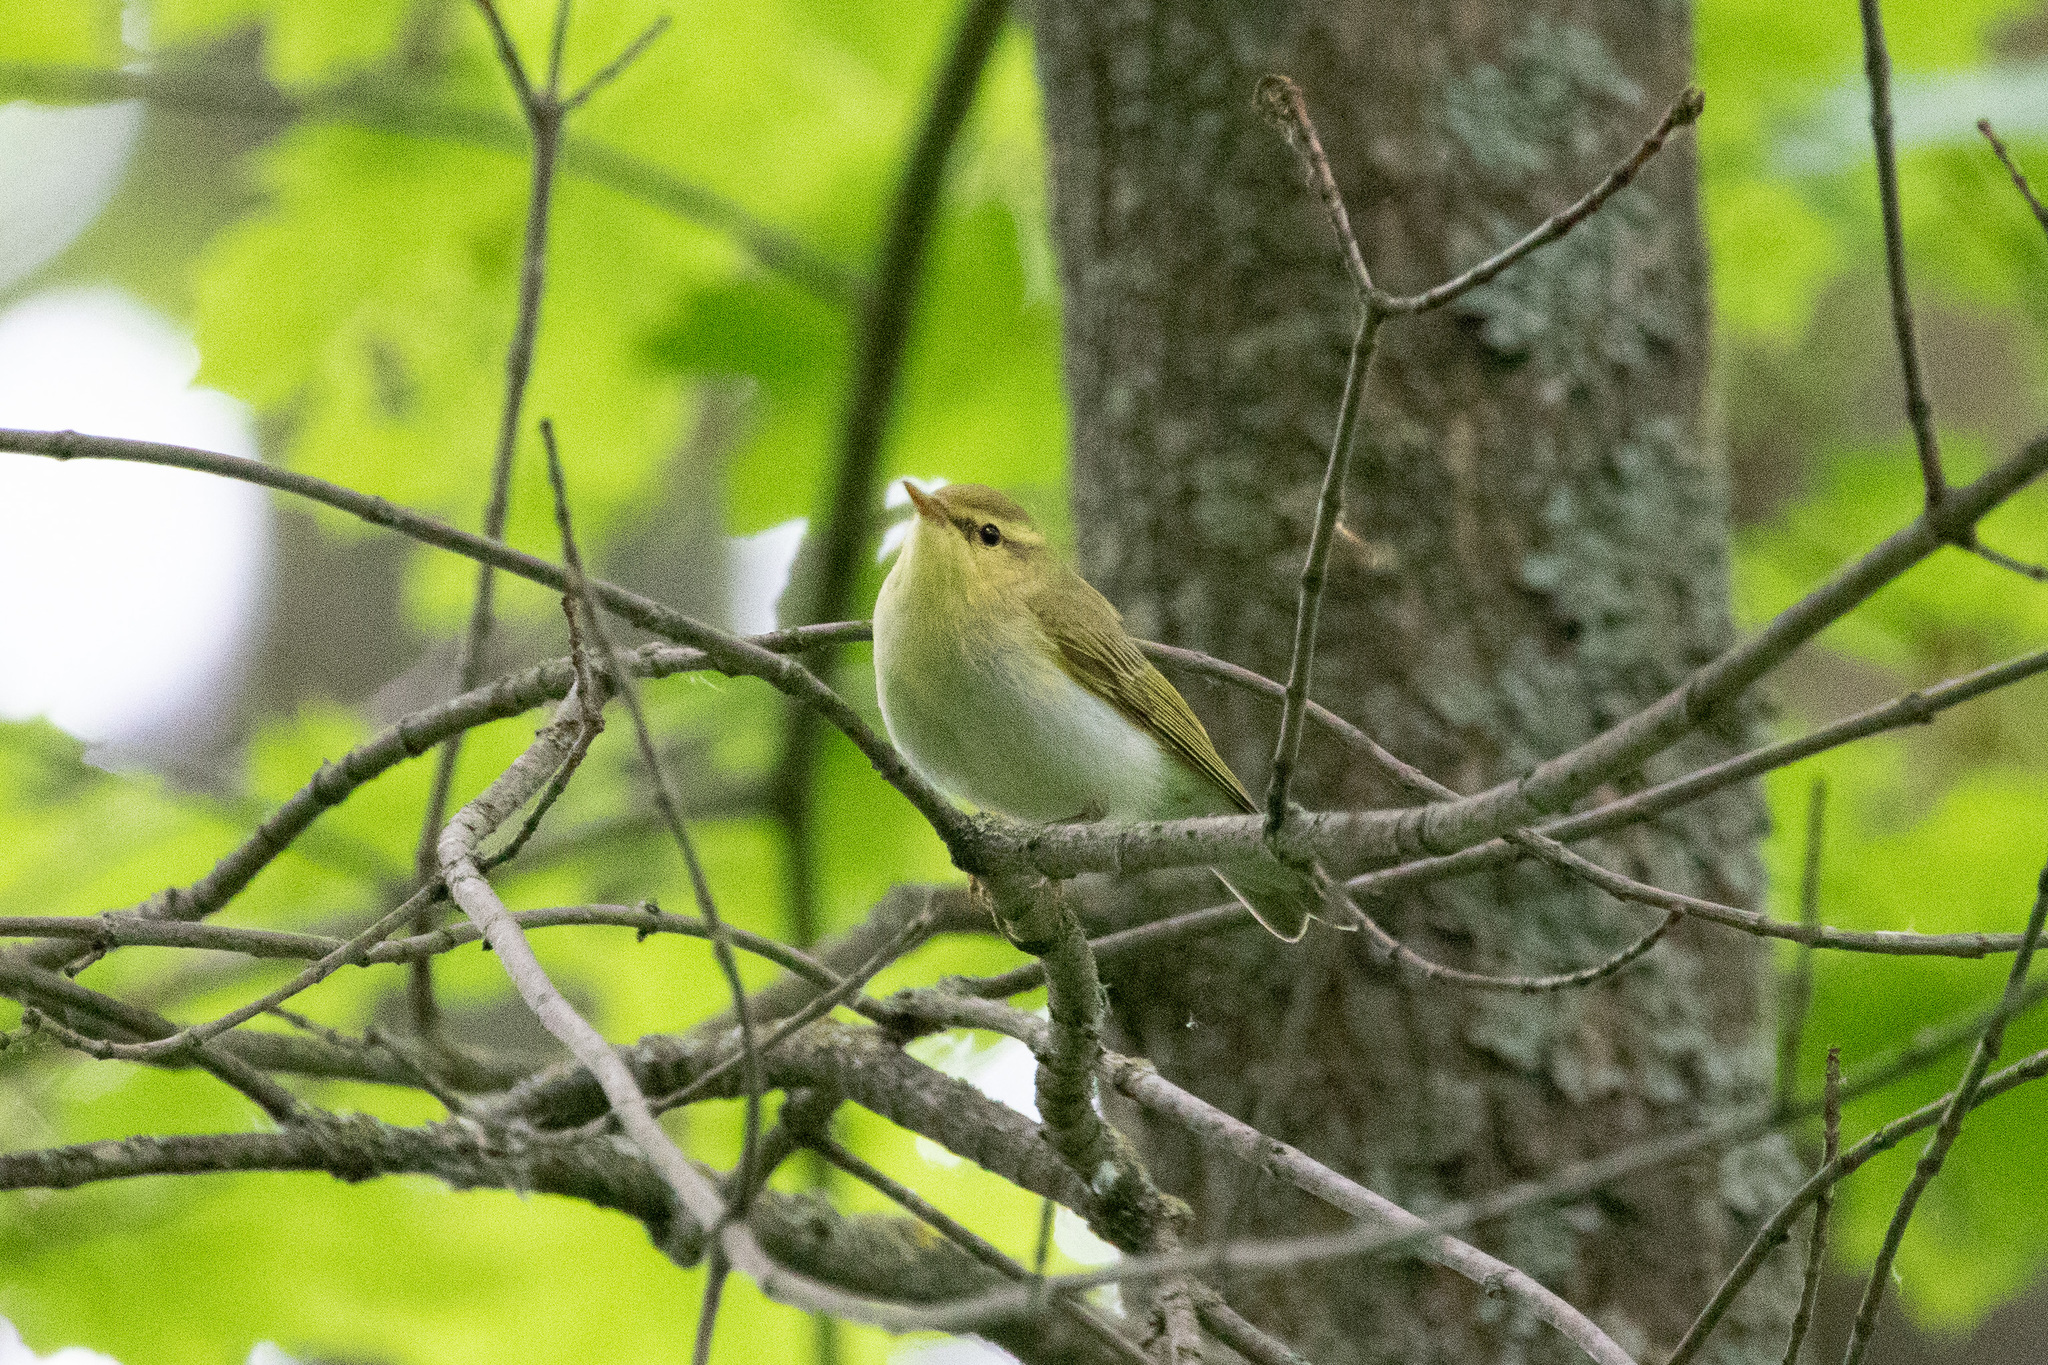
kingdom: Animalia
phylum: Chordata
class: Aves
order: Passeriformes
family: Phylloscopidae
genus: Phylloscopus
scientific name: Phylloscopus sibillatrix
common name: Wood warbler
